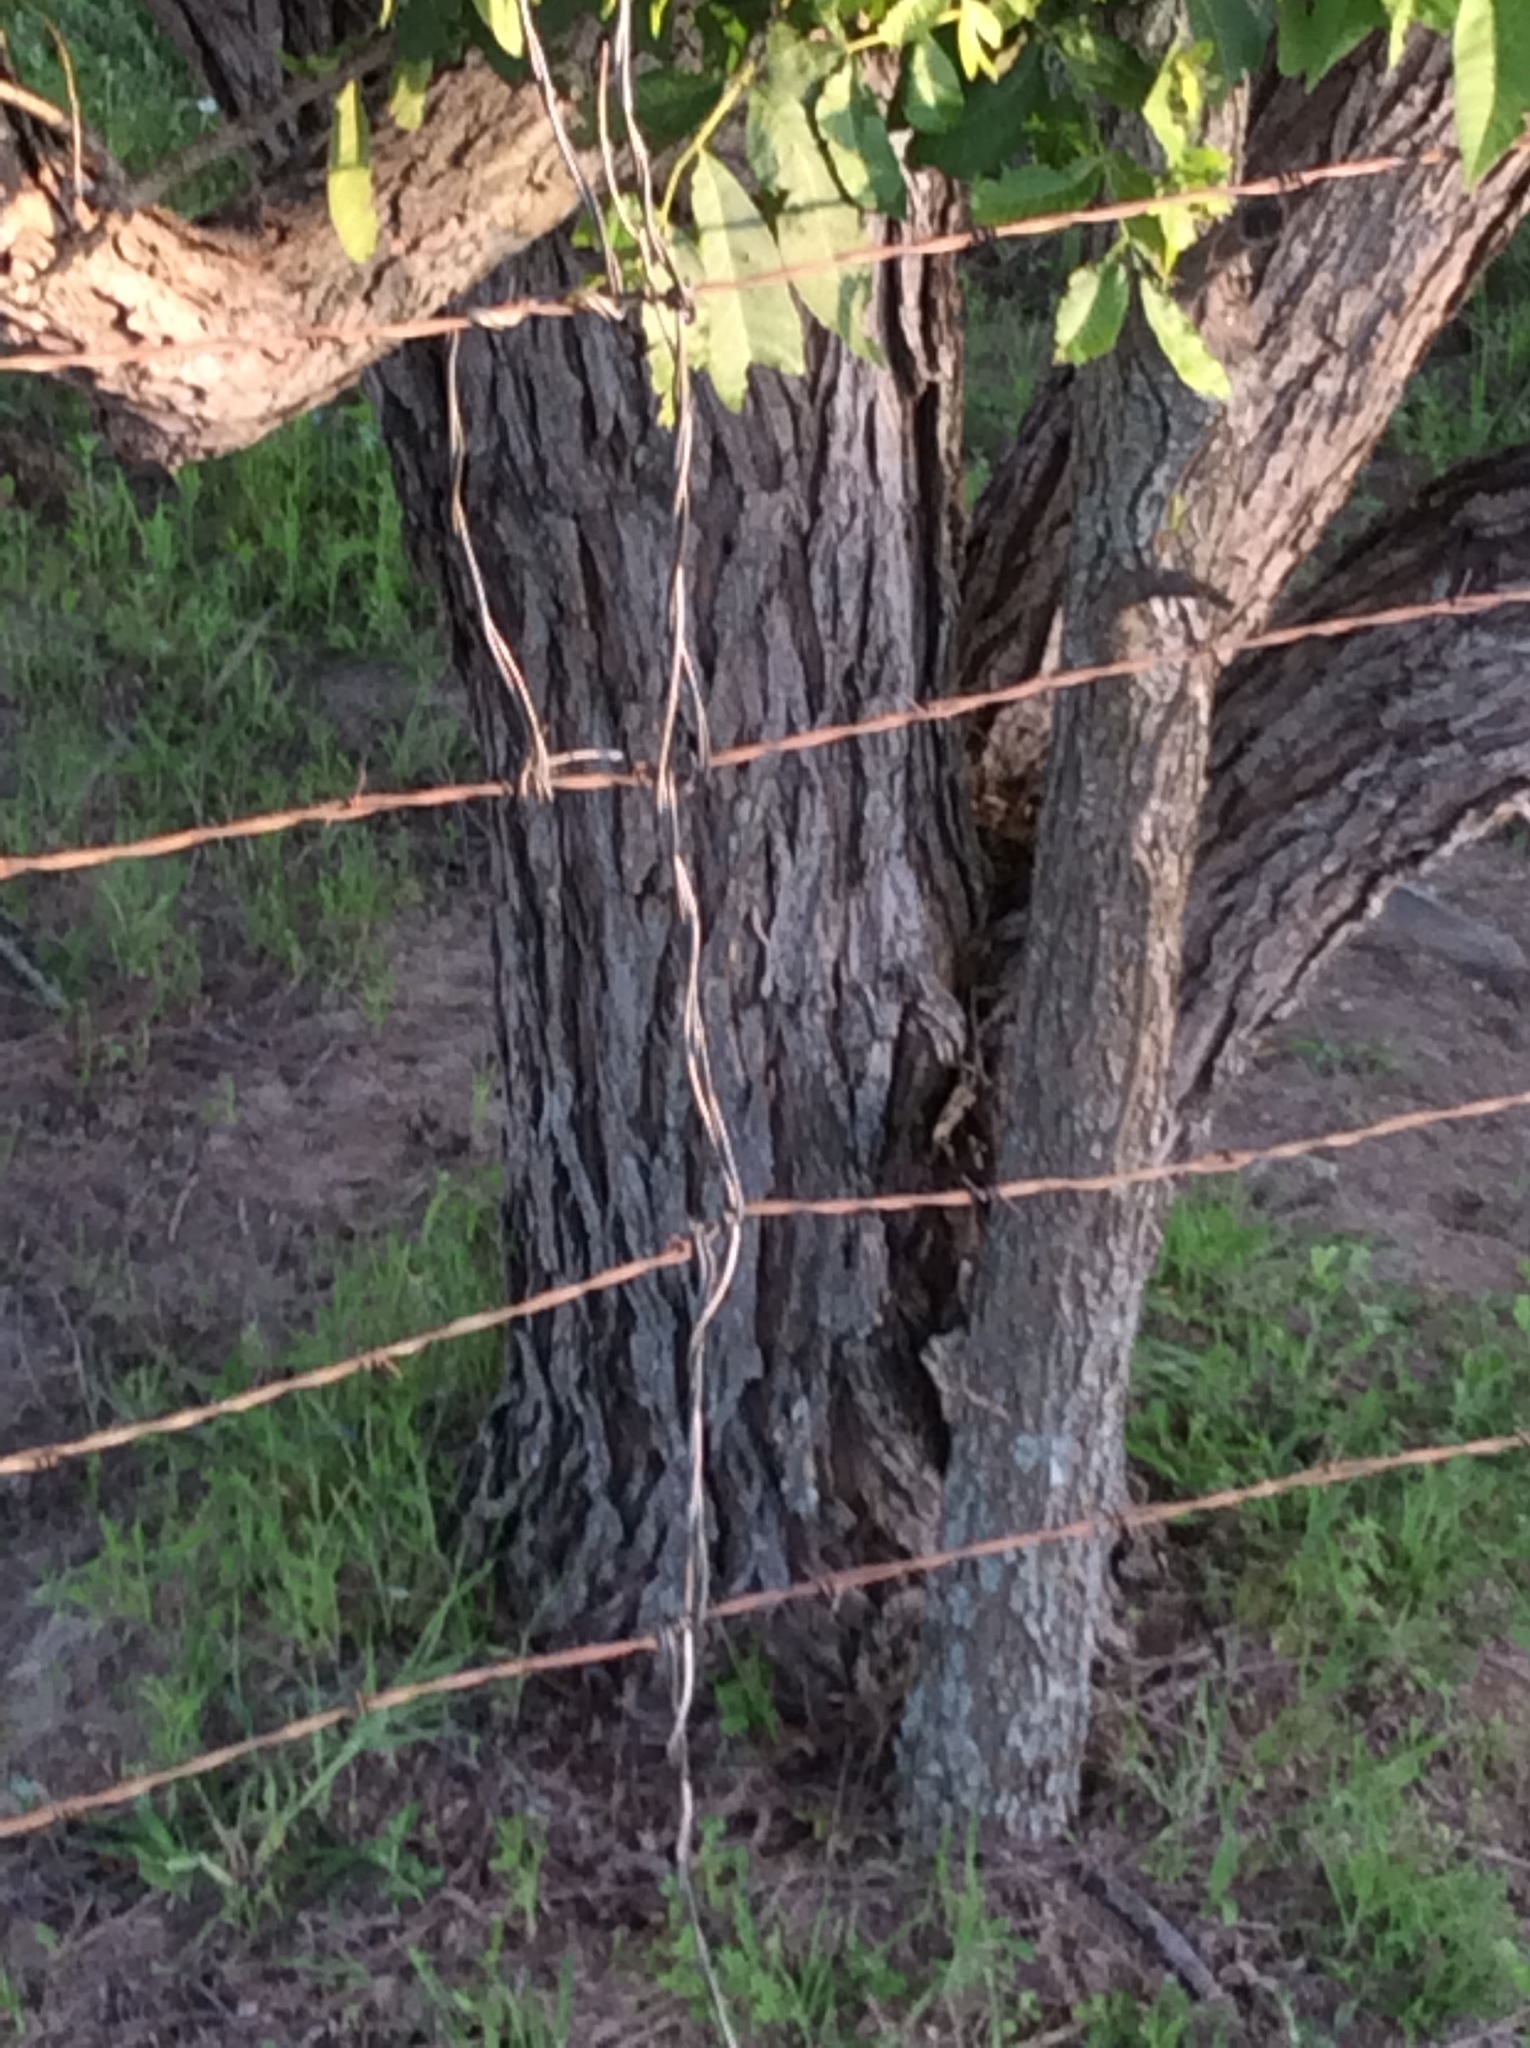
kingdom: Plantae
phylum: Tracheophyta
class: Magnoliopsida
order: Malpighiales
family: Salicaceae
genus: Salix
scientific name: Salix nigra
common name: Black willow
